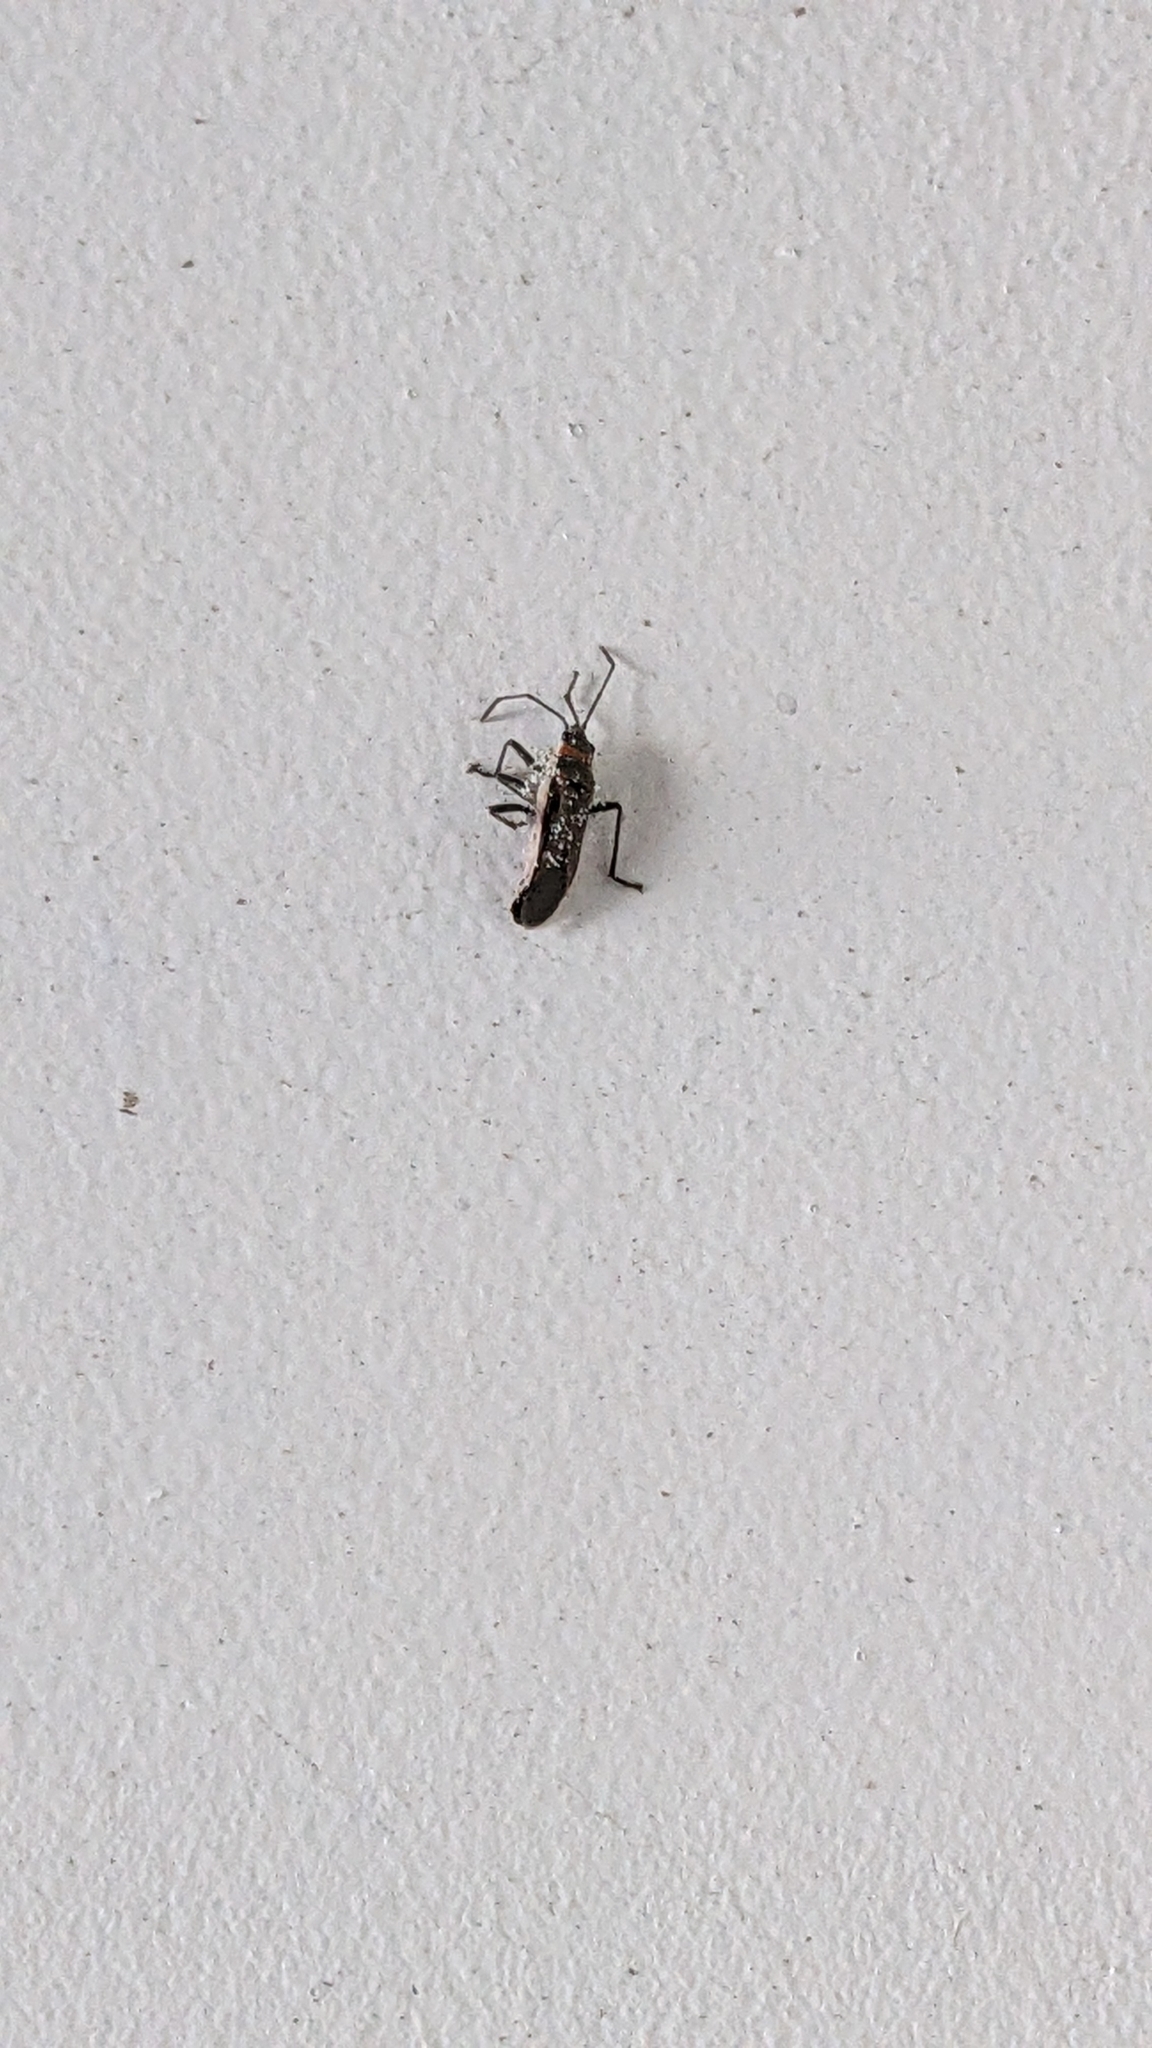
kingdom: Animalia
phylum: Arthropoda
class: Insecta
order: Hemiptera
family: Lygaeidae
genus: Arocatus
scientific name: Arocatus rusticus
